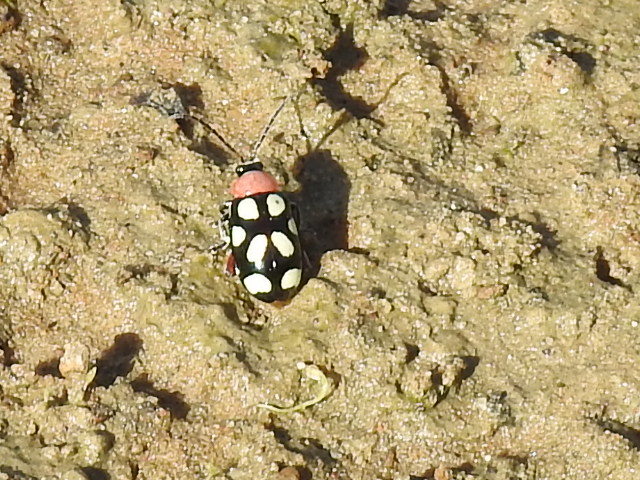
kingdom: Animalia
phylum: Arthropoda
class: Insecta
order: Coleoptera
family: Chrysomelidae
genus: Omophoita
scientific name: Omophoita cyanipennis
